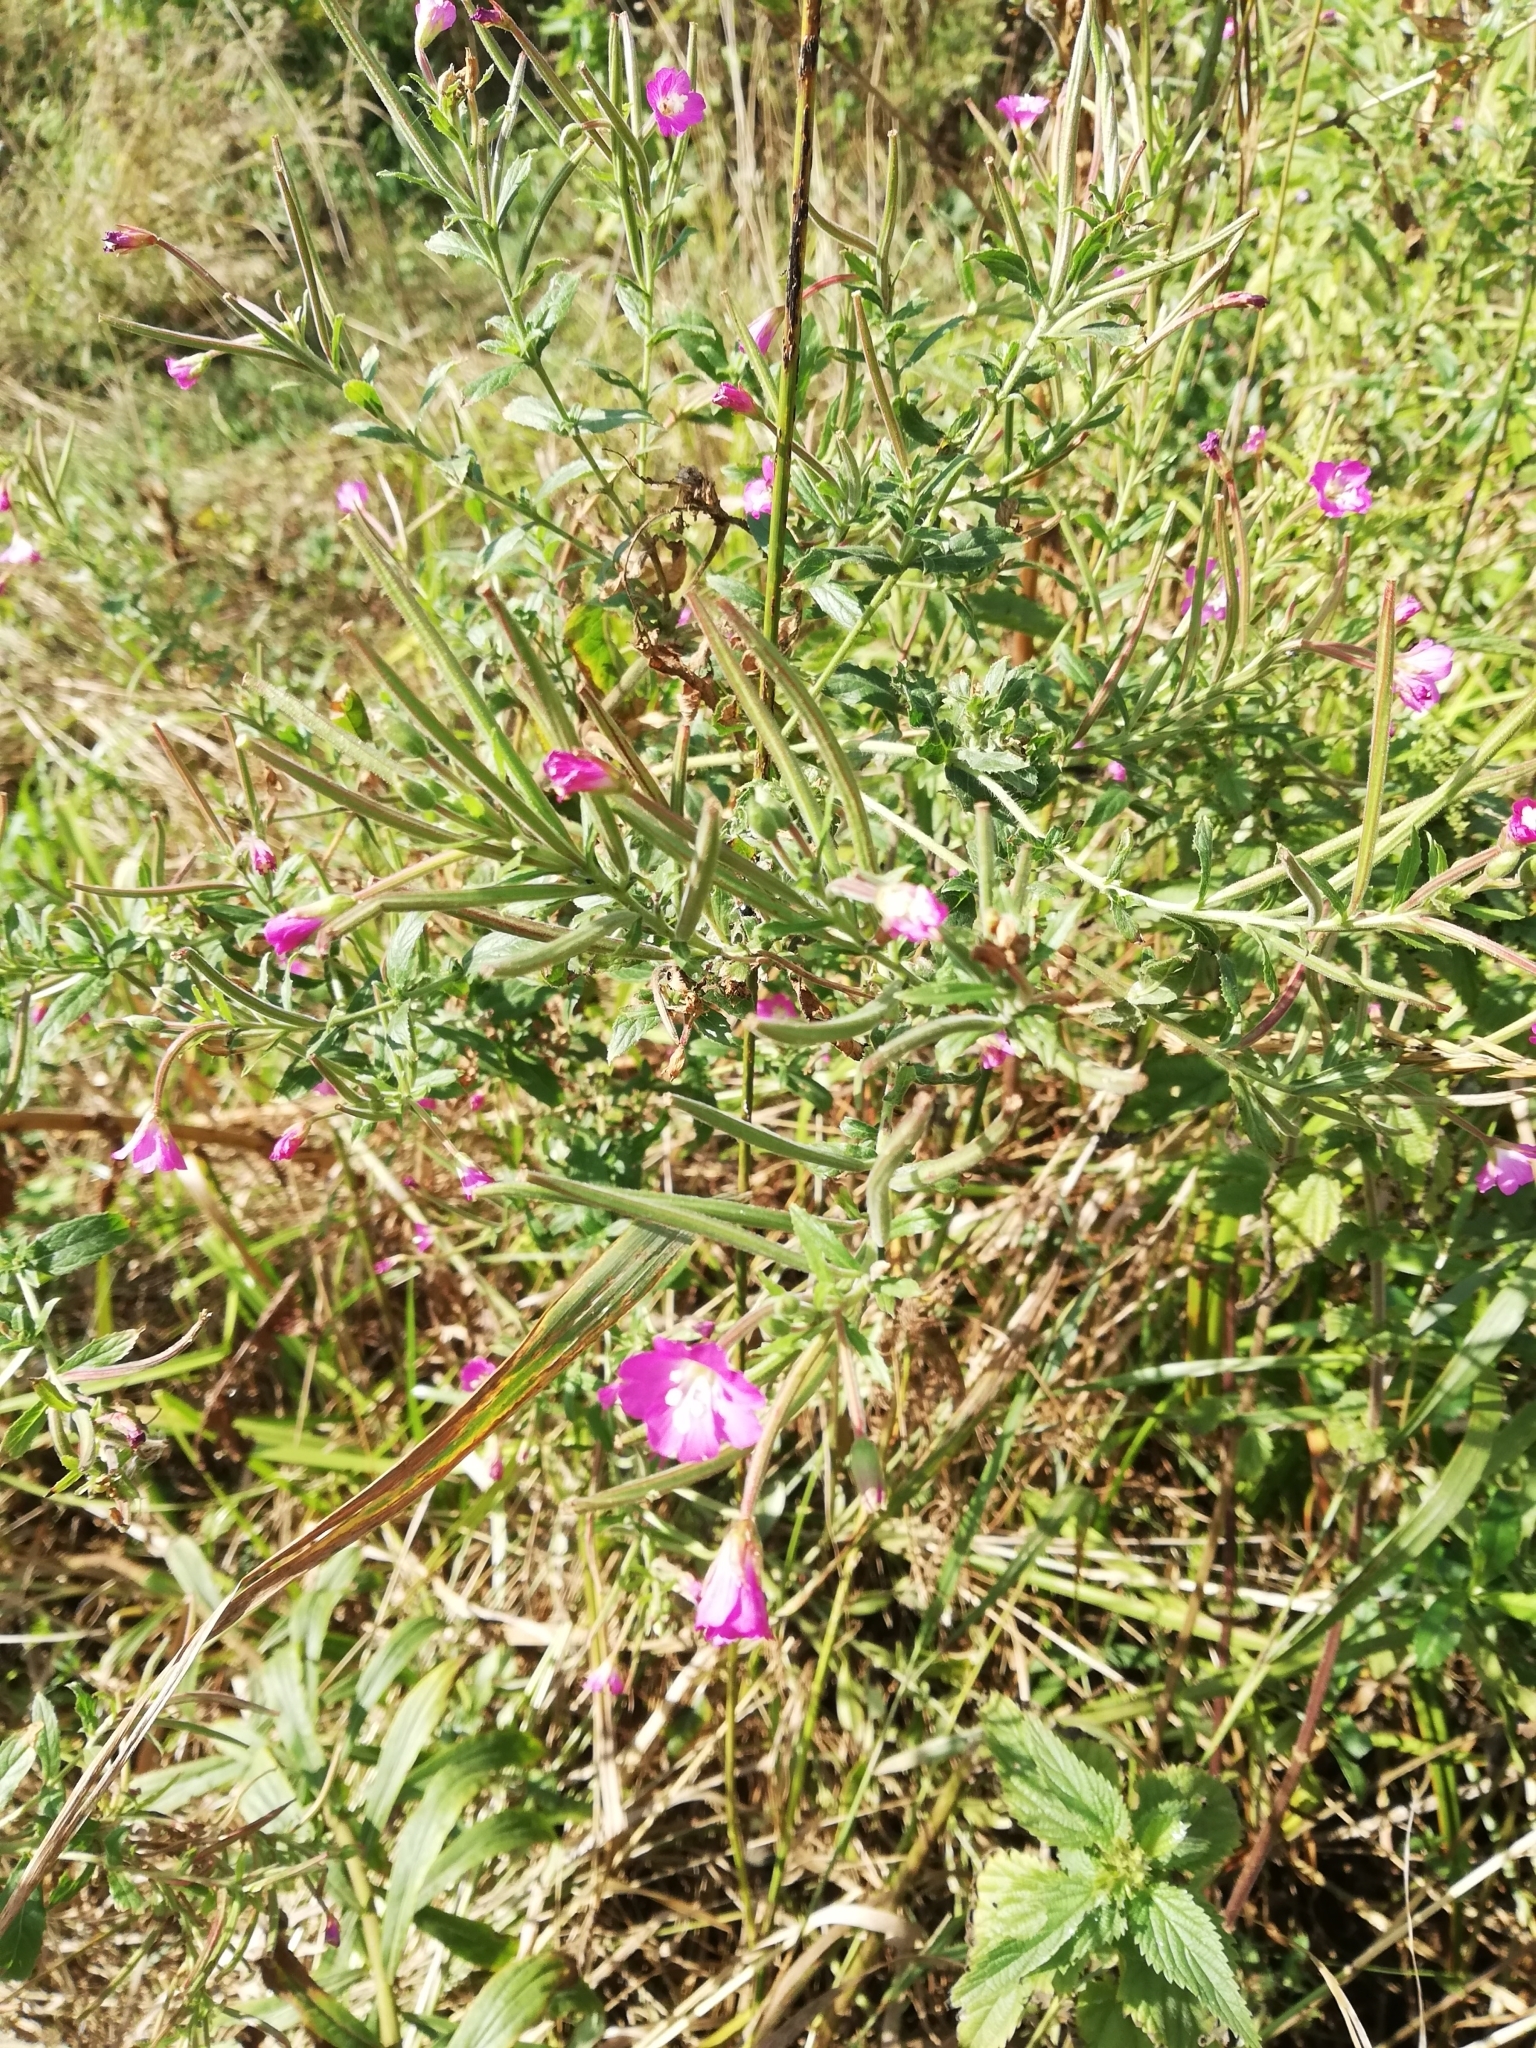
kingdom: Plantae
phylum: Tracheophyta
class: Magnoliopsida
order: Myrtales
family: Onagraceae
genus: Epilobium
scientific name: Epilobium hirsutum
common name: Great willowherb
